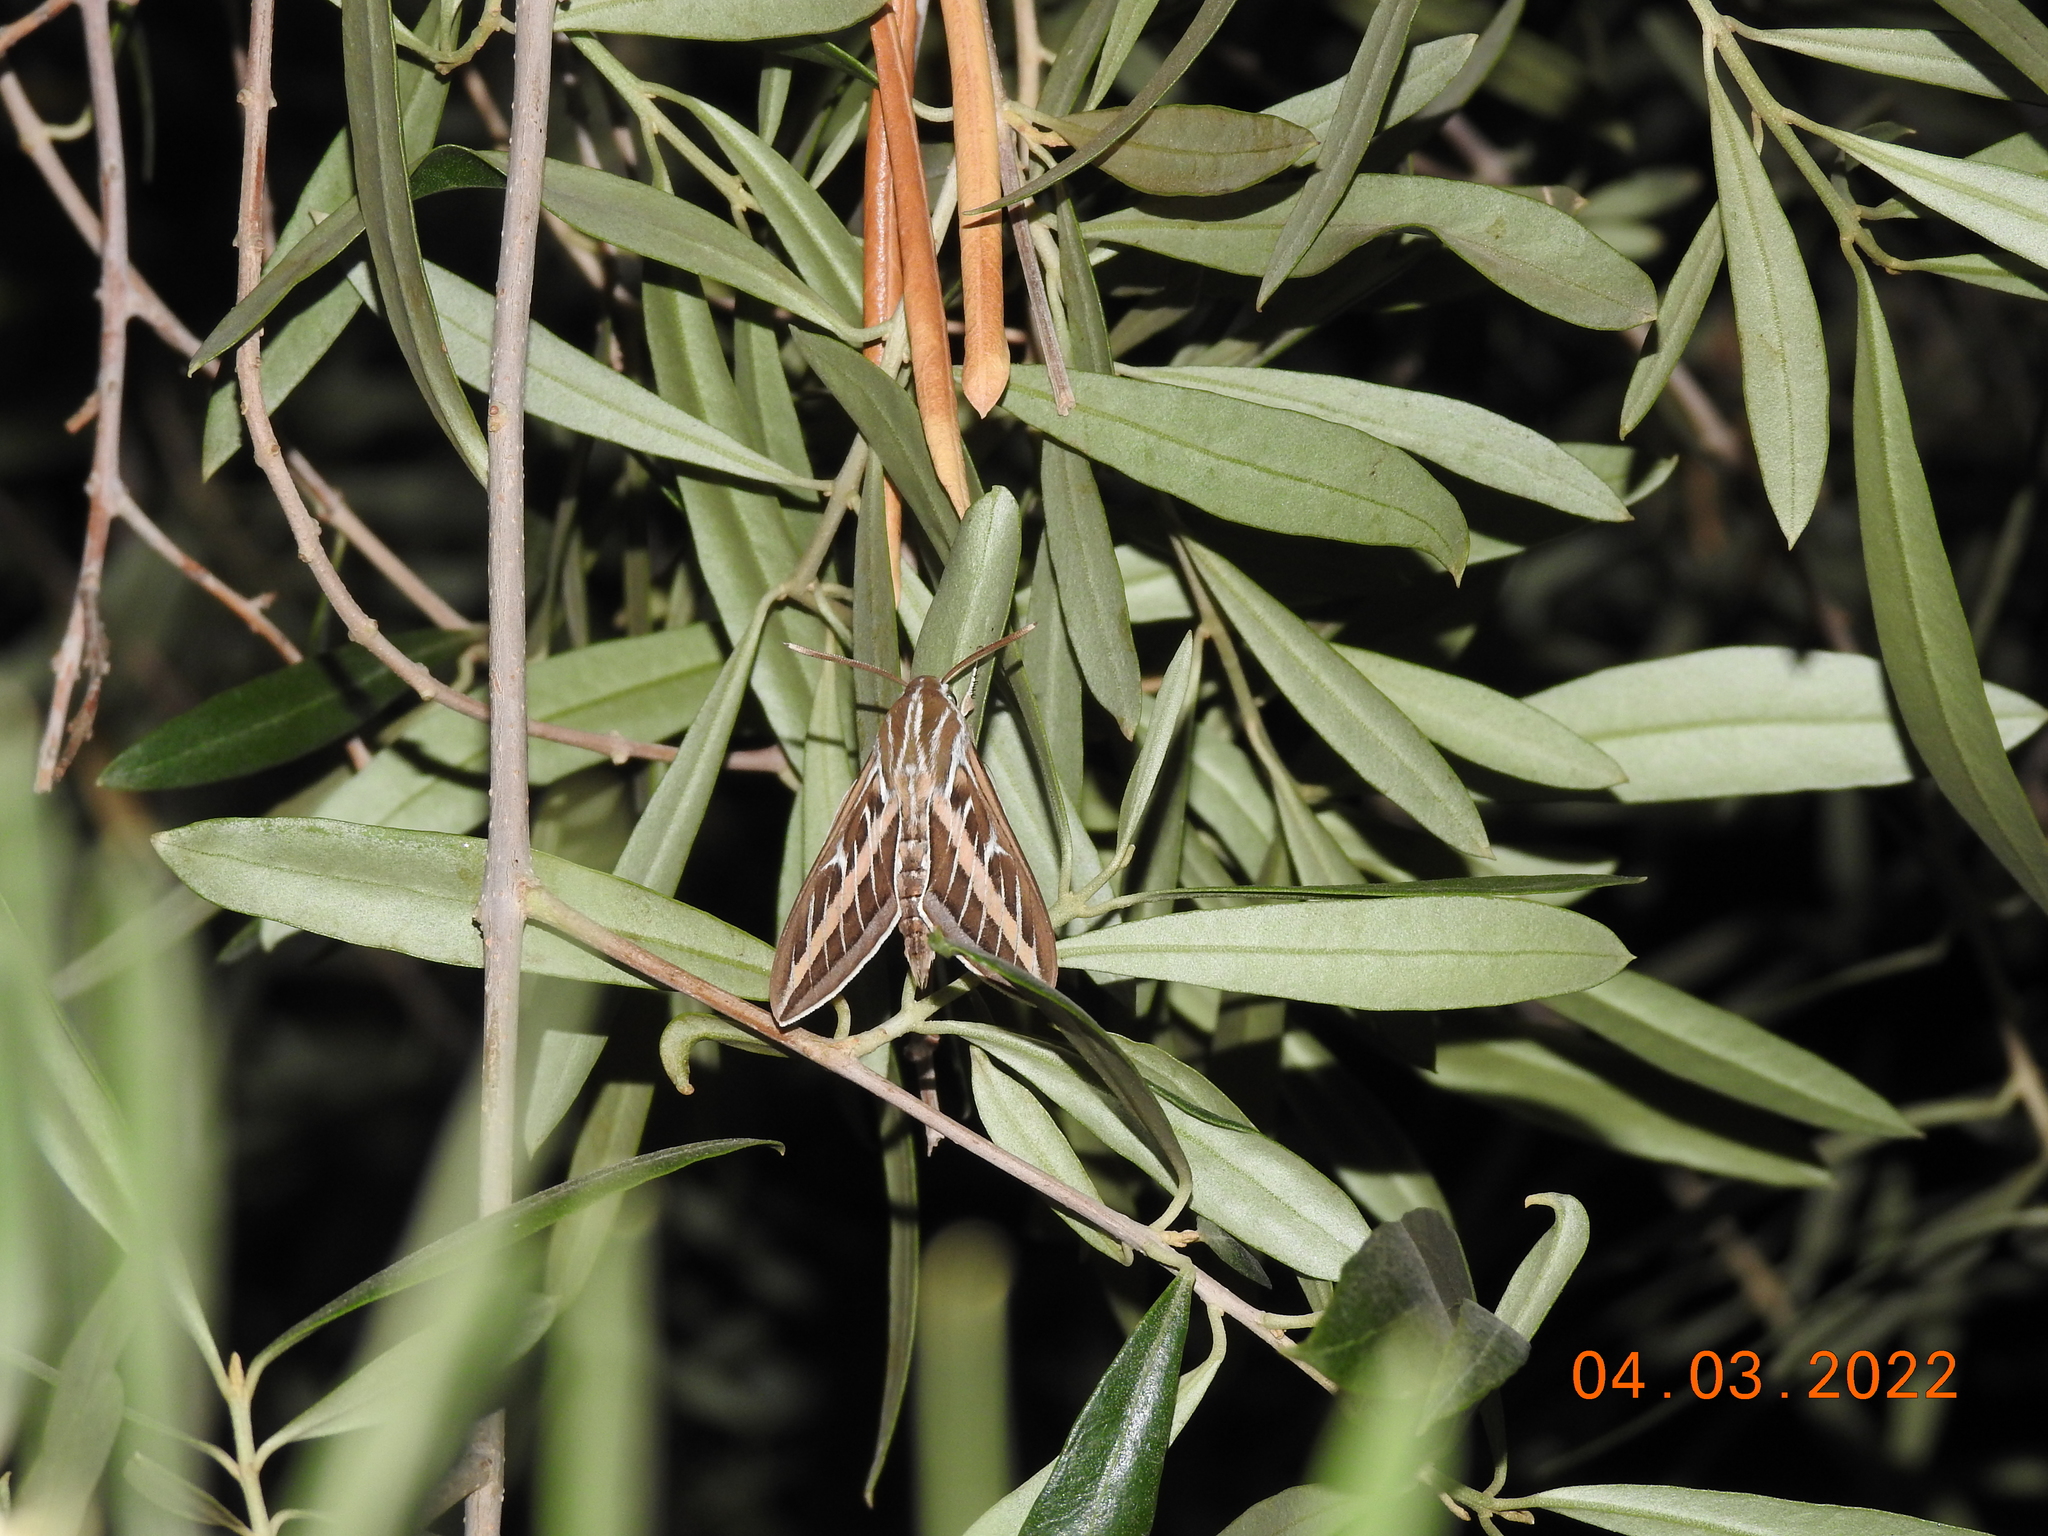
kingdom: Animalia
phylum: Arthropoda
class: Insecta
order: Lepidoptera
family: Sphingidae
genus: Hyles
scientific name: Hyles lineata
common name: White-lined sphinx
